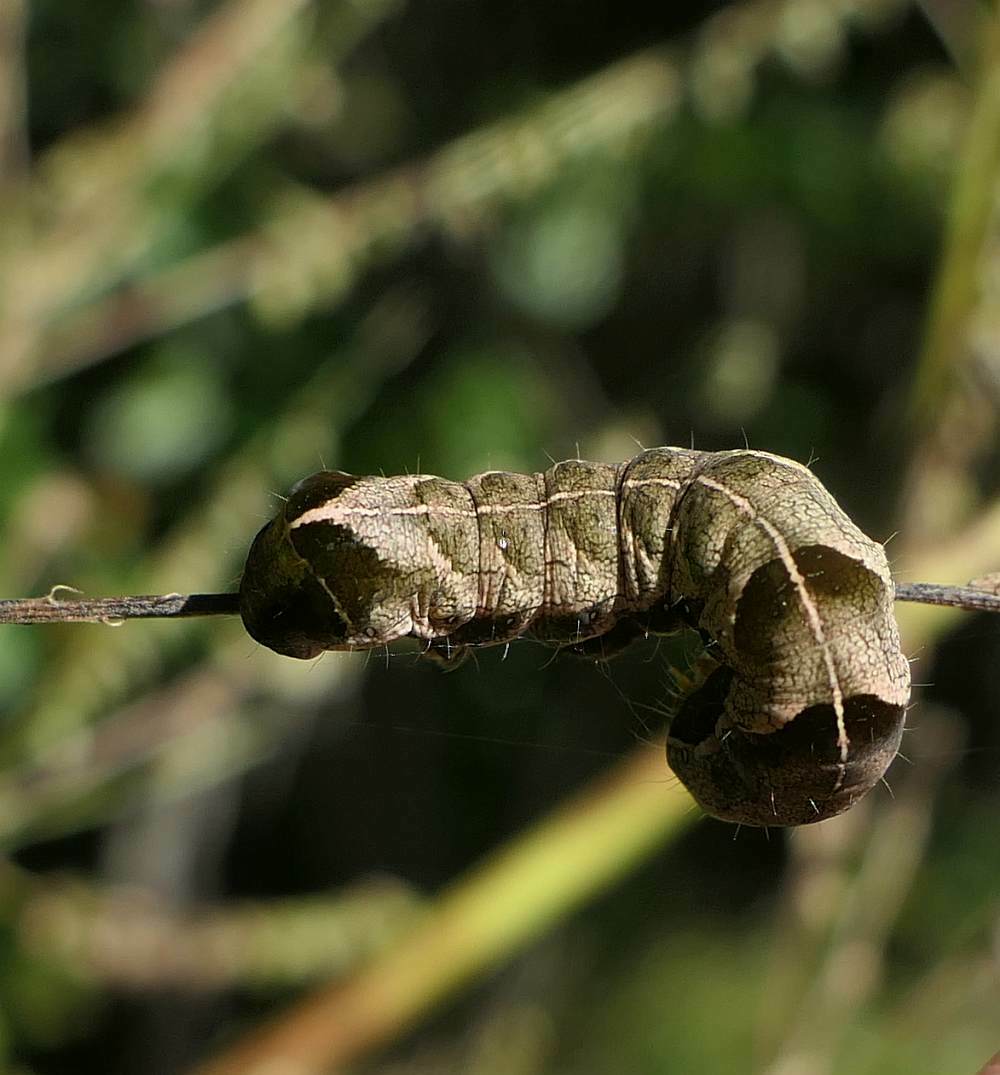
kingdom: Animalia
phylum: Arthropoda
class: Insecta
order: Lepidoptera
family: Noctuidae
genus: Melanchra
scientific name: Melanchra adjuncta
